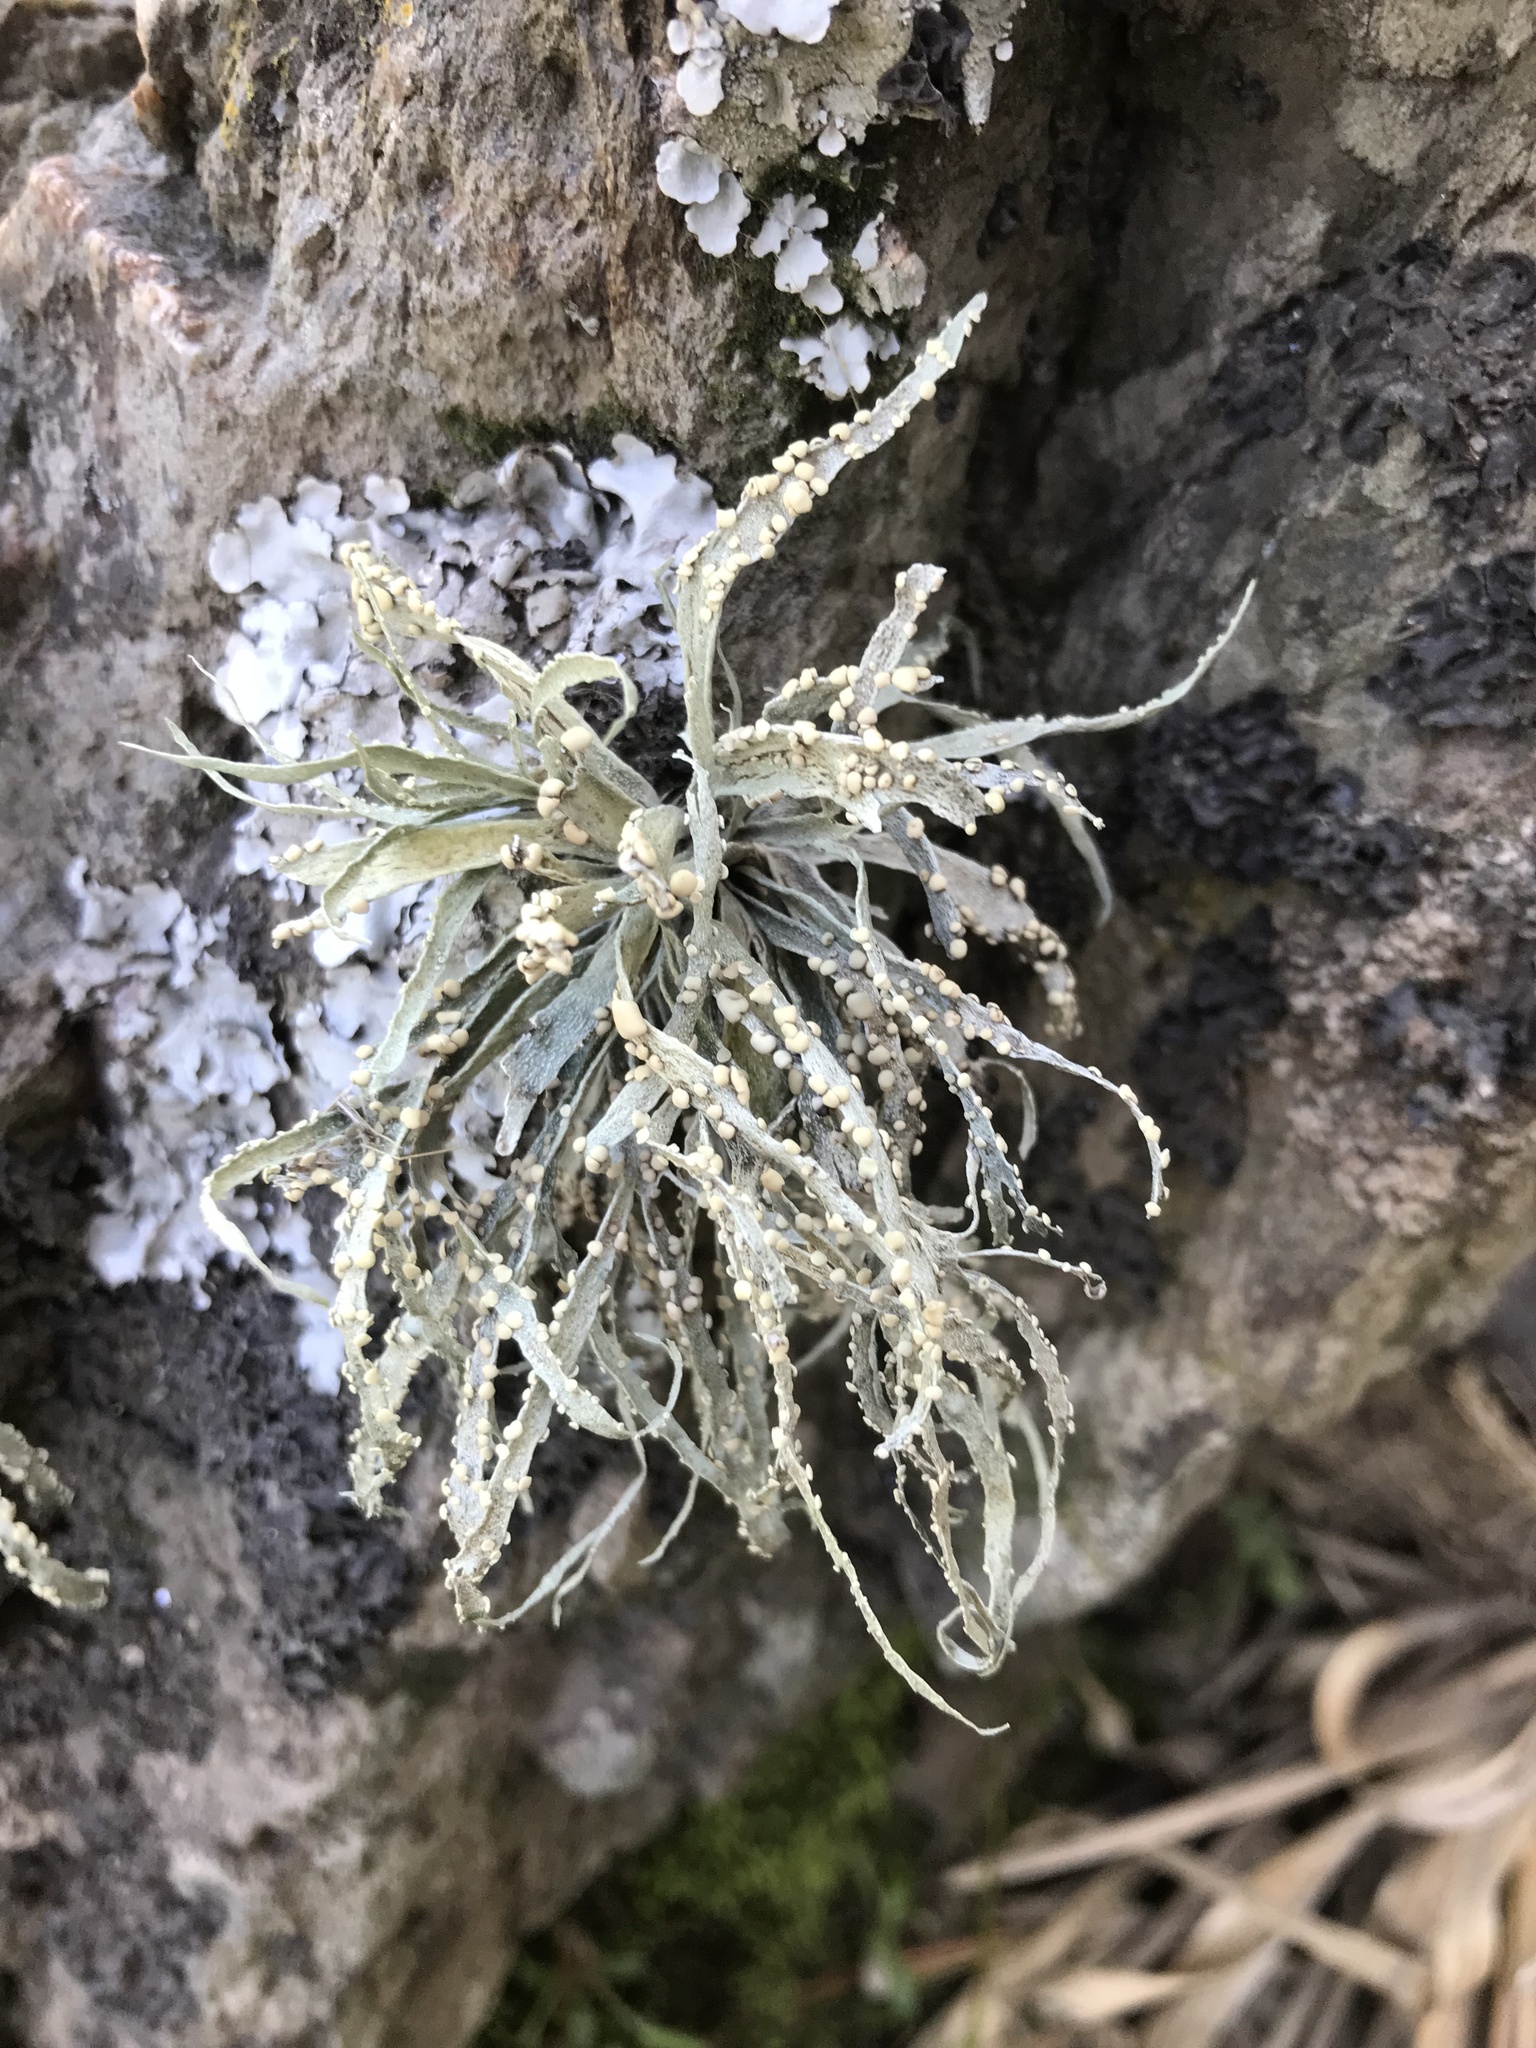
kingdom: Fungi
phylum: Ascomycota
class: Lecanoromycetes
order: Lecanorales
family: Ramalinaceae
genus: Ramalina
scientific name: Ramalina celastri
